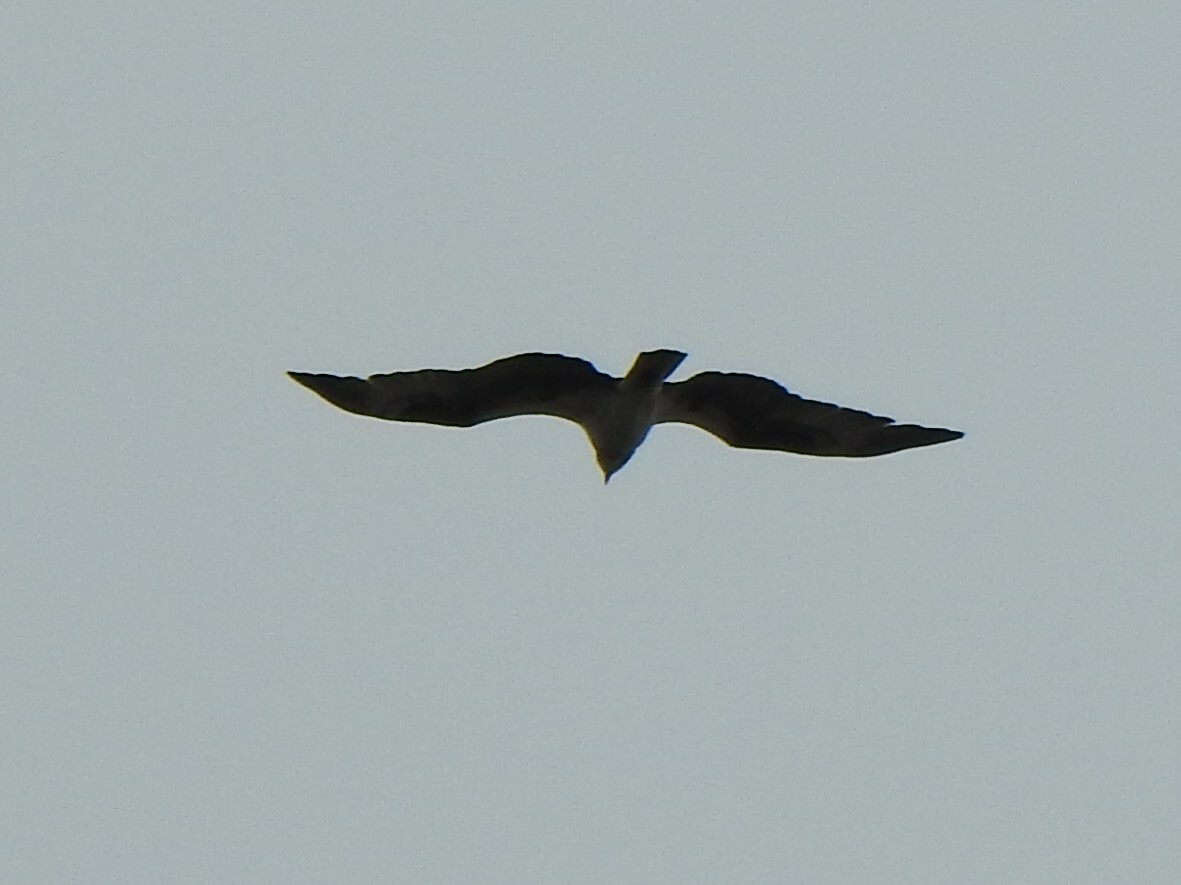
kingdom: Animalia
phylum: Chordata
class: Aves
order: Accipitriformes
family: Pandionidae
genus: Pandion
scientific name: Pandion haliaetus
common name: Osprey
